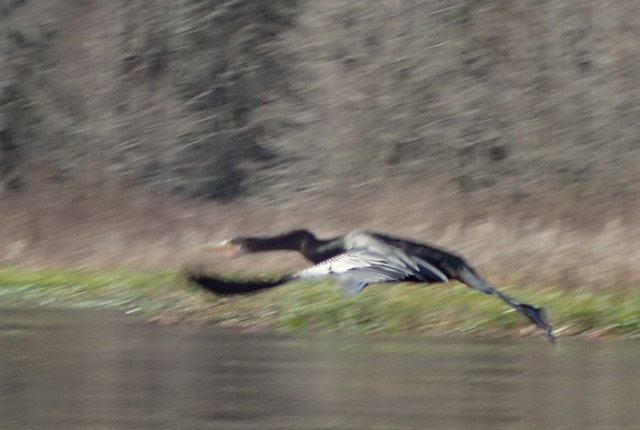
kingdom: Animalia
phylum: Chordata
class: Aves
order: Suliformes
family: Anhingidae
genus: Anhinga
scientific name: Anhinga anhinga
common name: Anhinga
